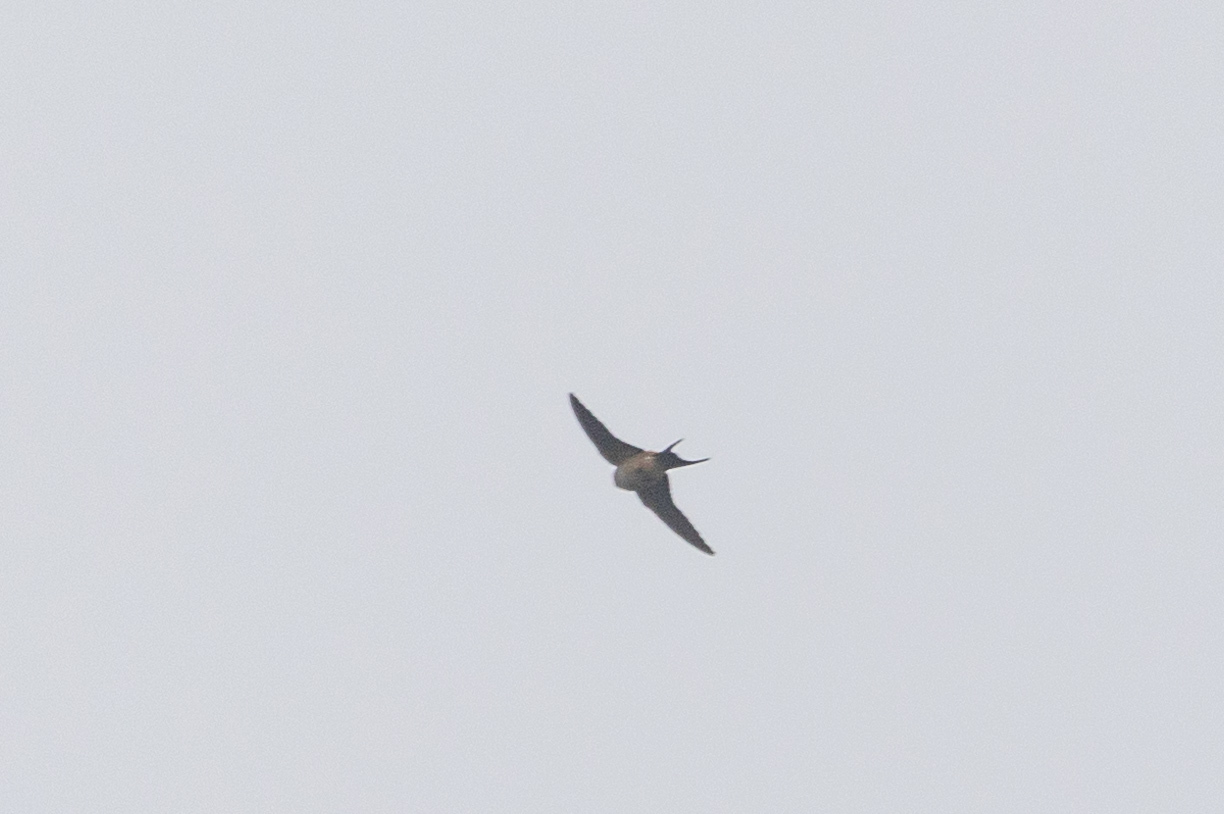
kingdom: Animalia
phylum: Chordata
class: Aves
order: Passeriformes
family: Hirundinidae
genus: Cecropis
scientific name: Cecropis daurica
